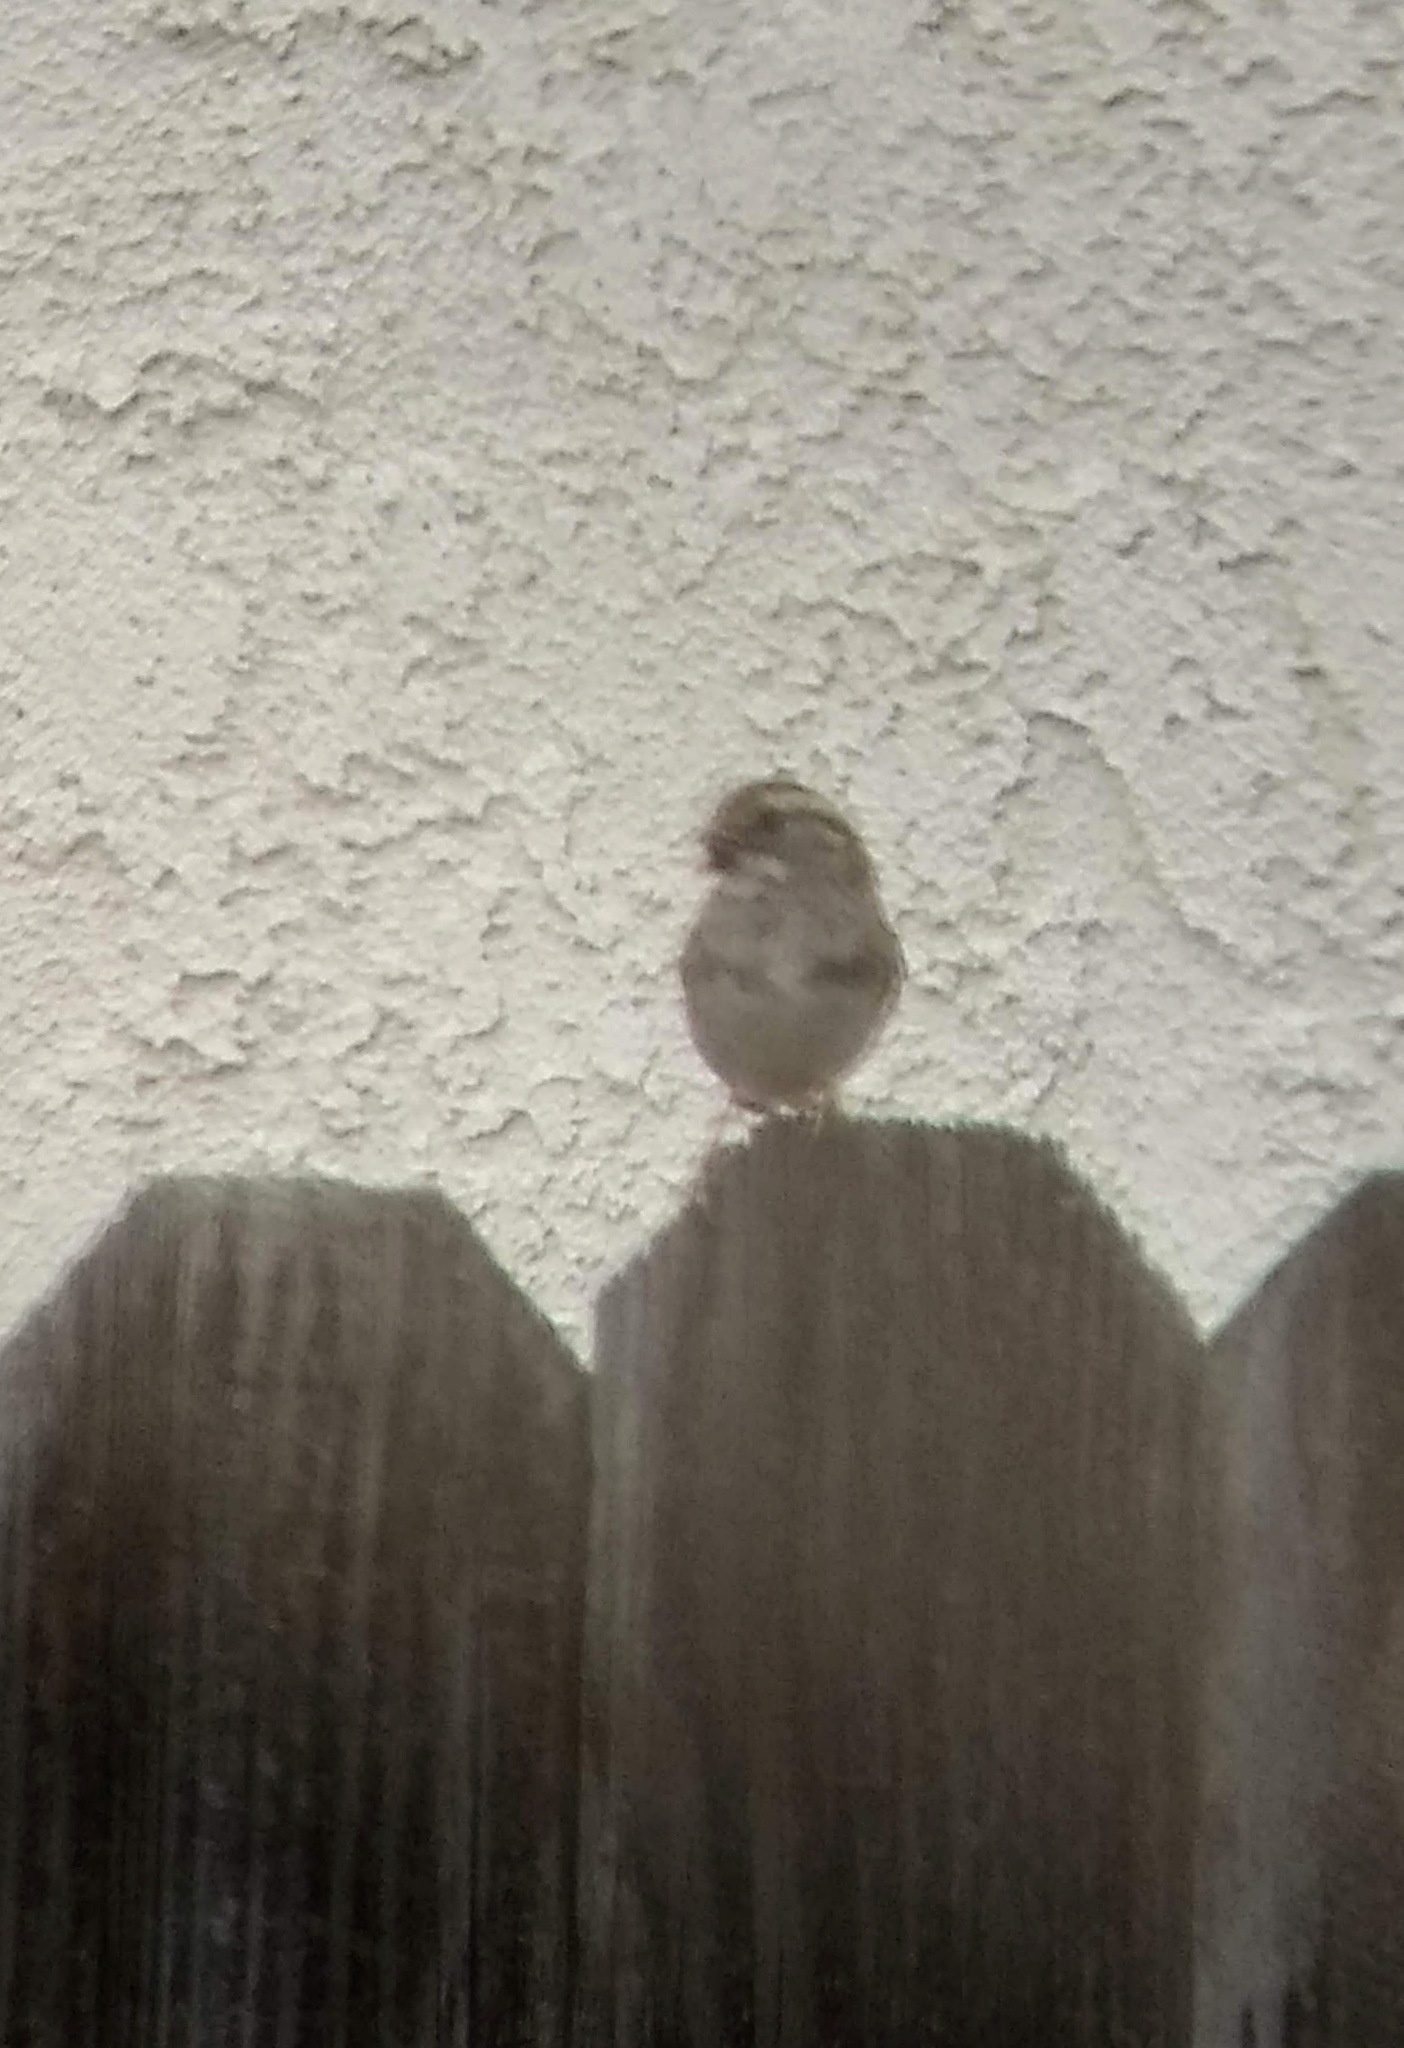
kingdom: Animalia
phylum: Chordata
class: Aves
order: Passeriformes
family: Passerellidae
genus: Zonotrichia
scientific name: Zonotrichia albicollis
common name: White-throated sparrow
